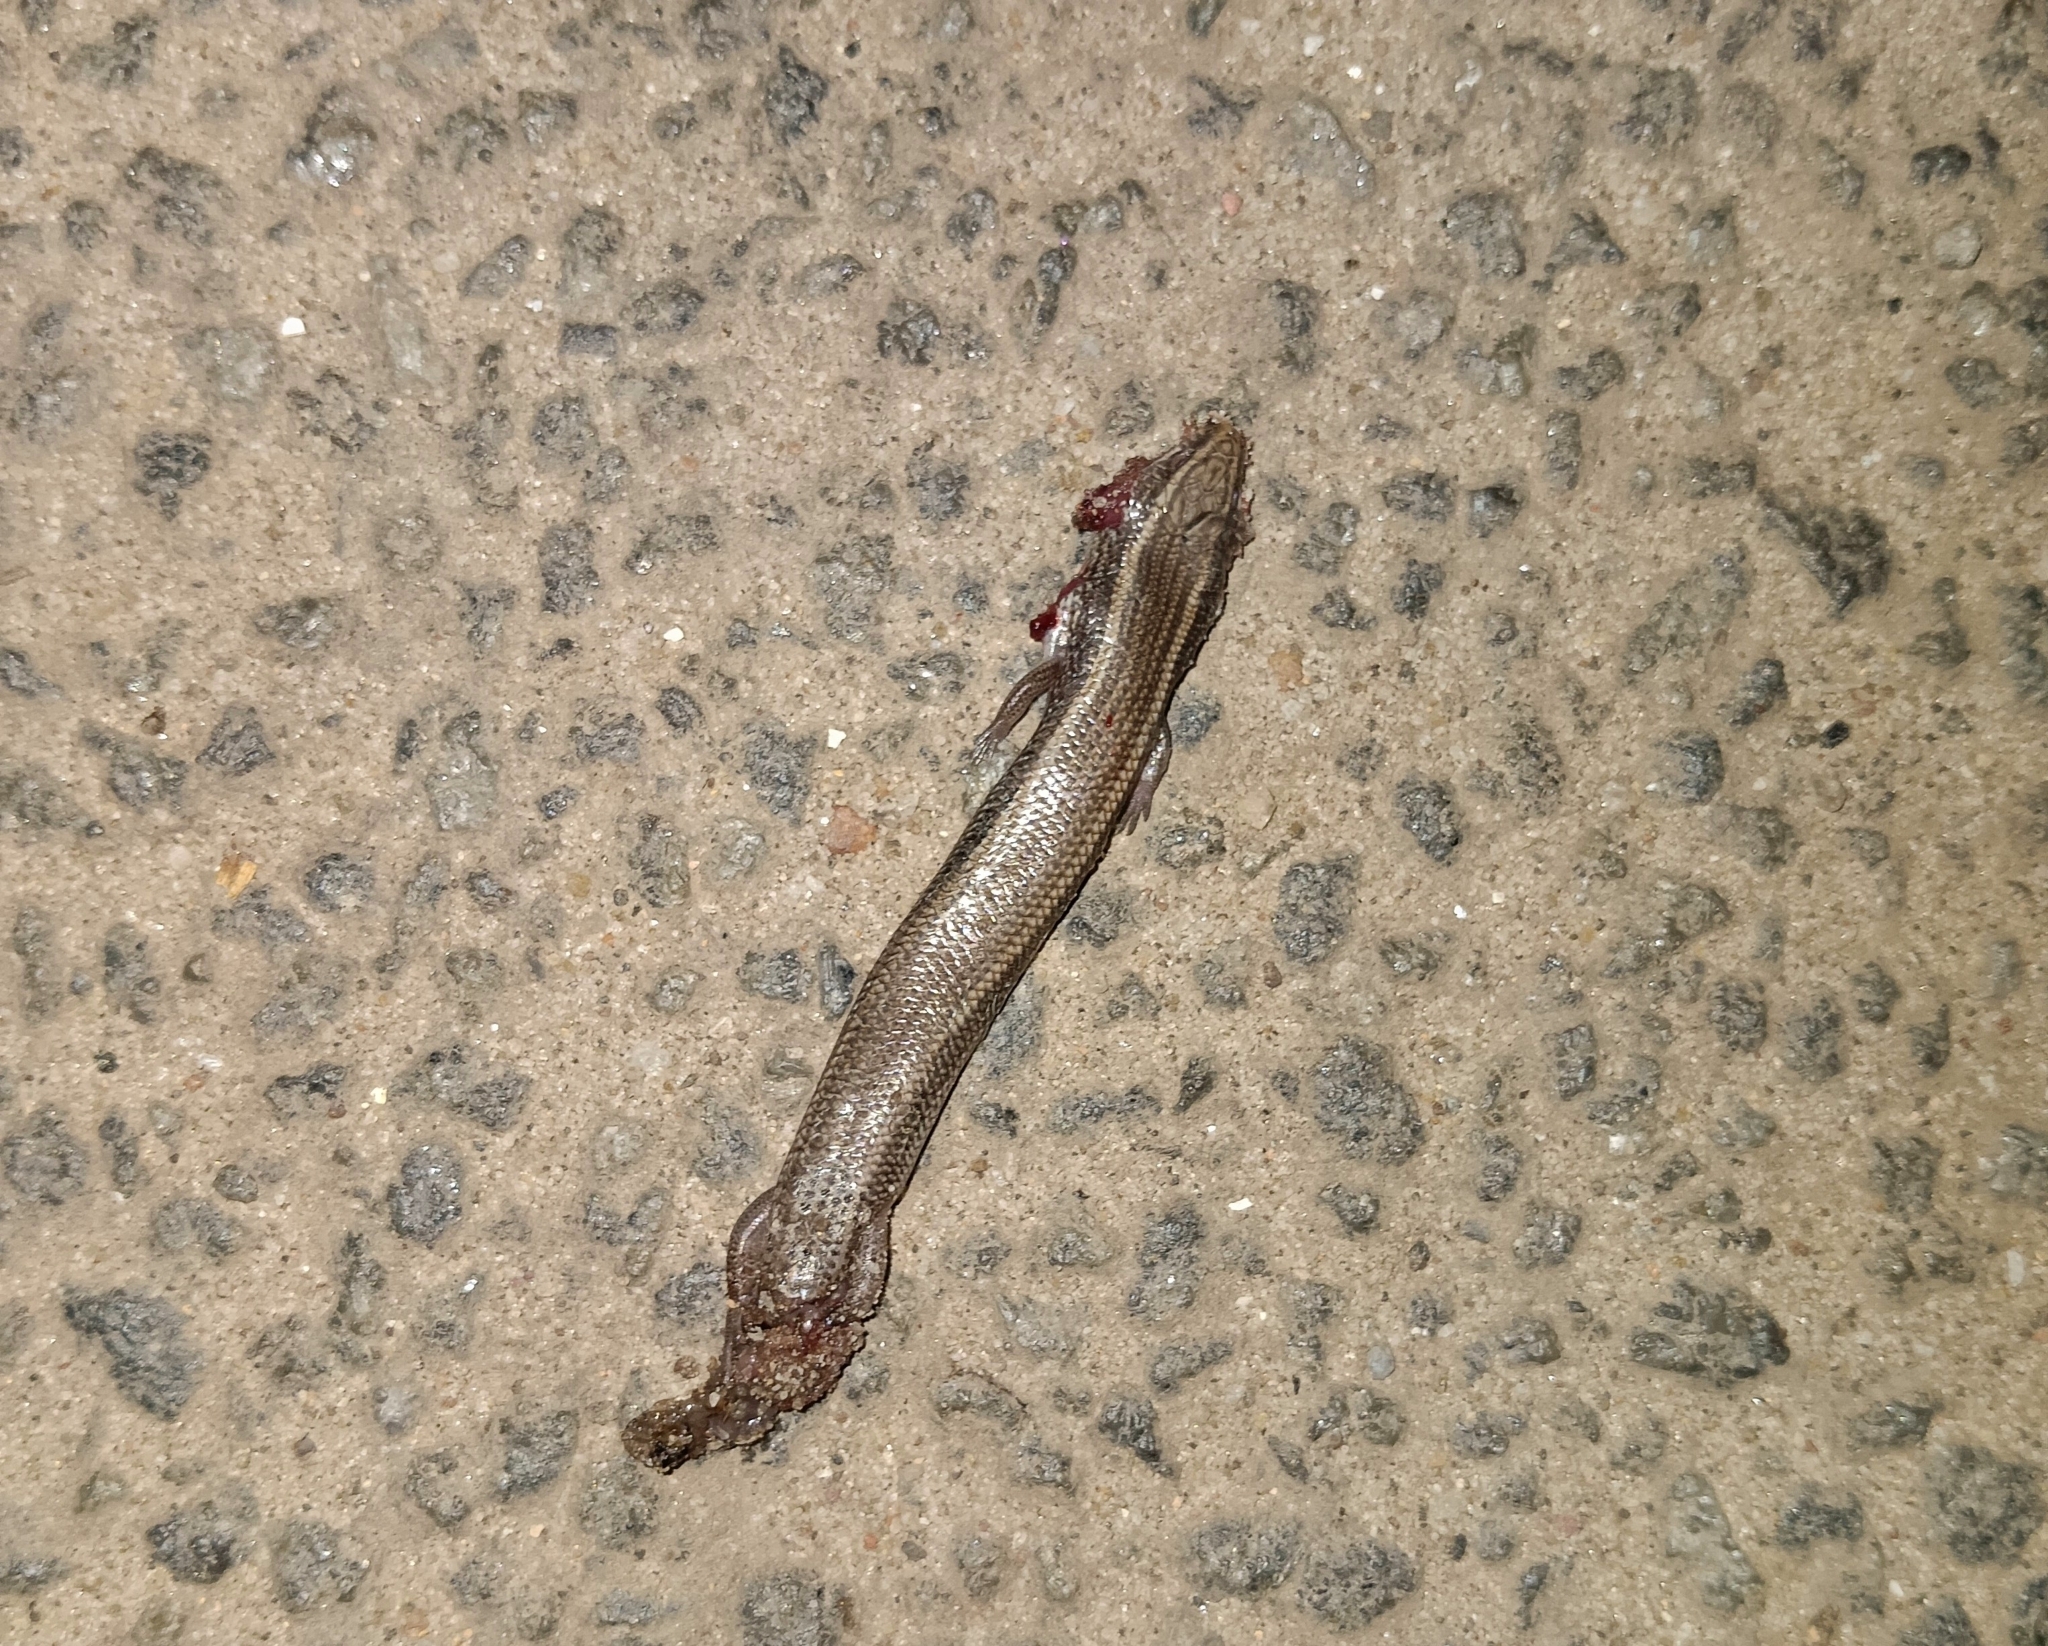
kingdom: Animalia
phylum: Chordata
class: Squamata
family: Scincidae
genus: Riopa
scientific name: Riopa punctata
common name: Common dotted garden skink
